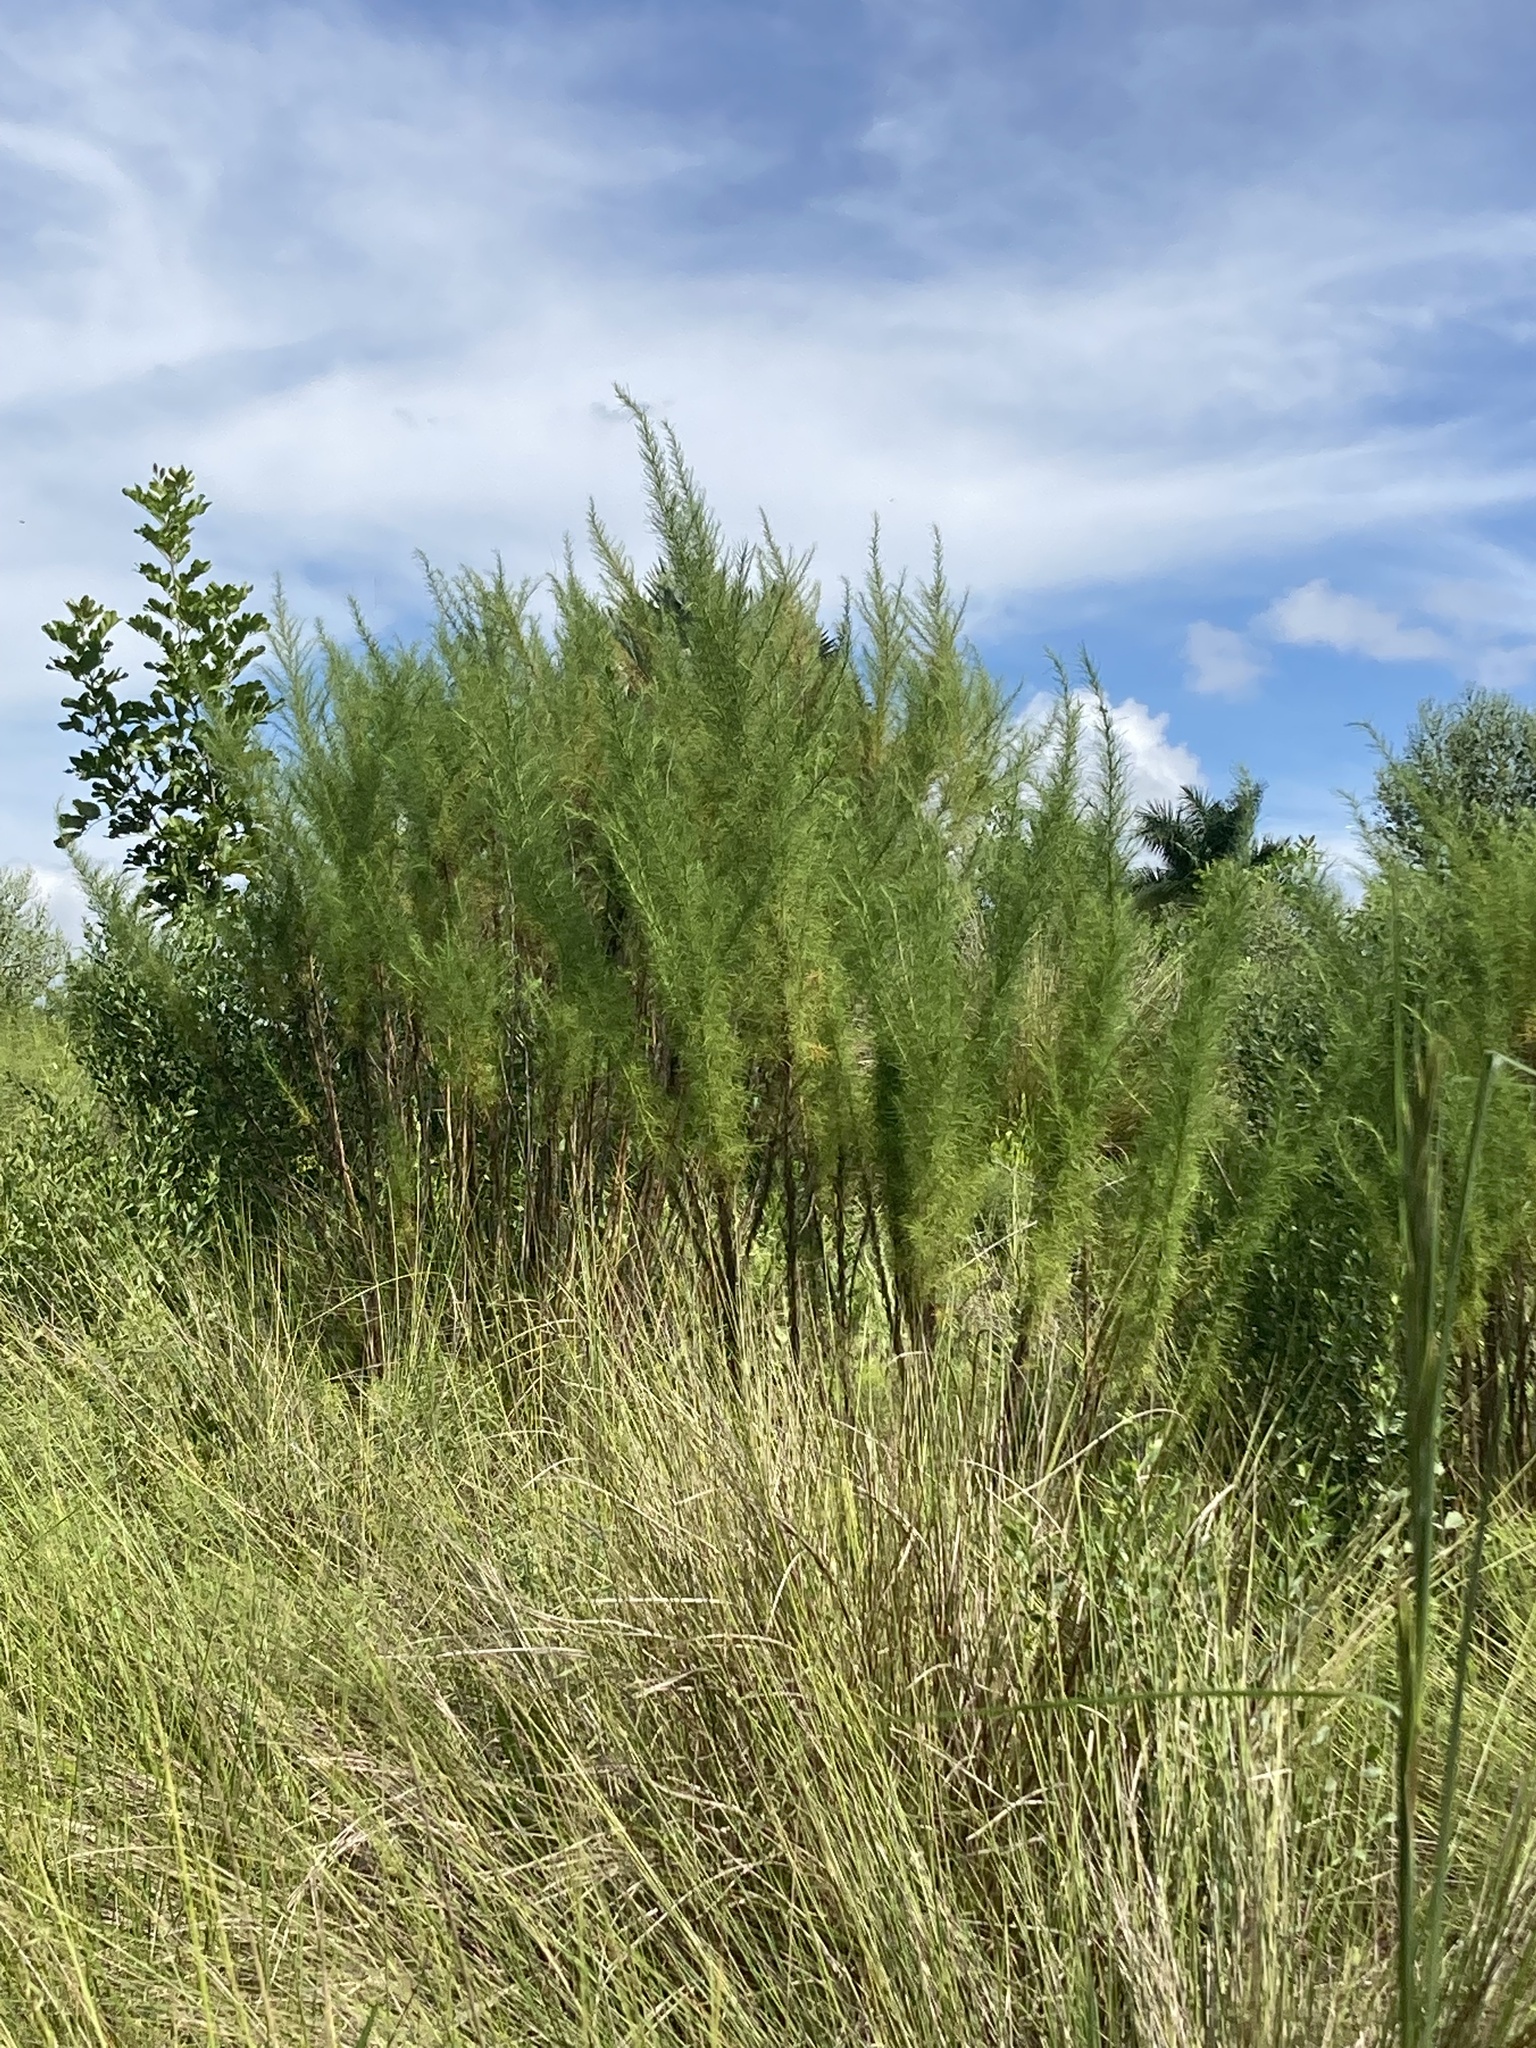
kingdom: Plantae
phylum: Tracheophyta
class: Magnoliopsida
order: Asterales
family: Asteraceae
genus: Eupatorium
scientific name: Eupatorium capillifolium
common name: Dog-fennel
